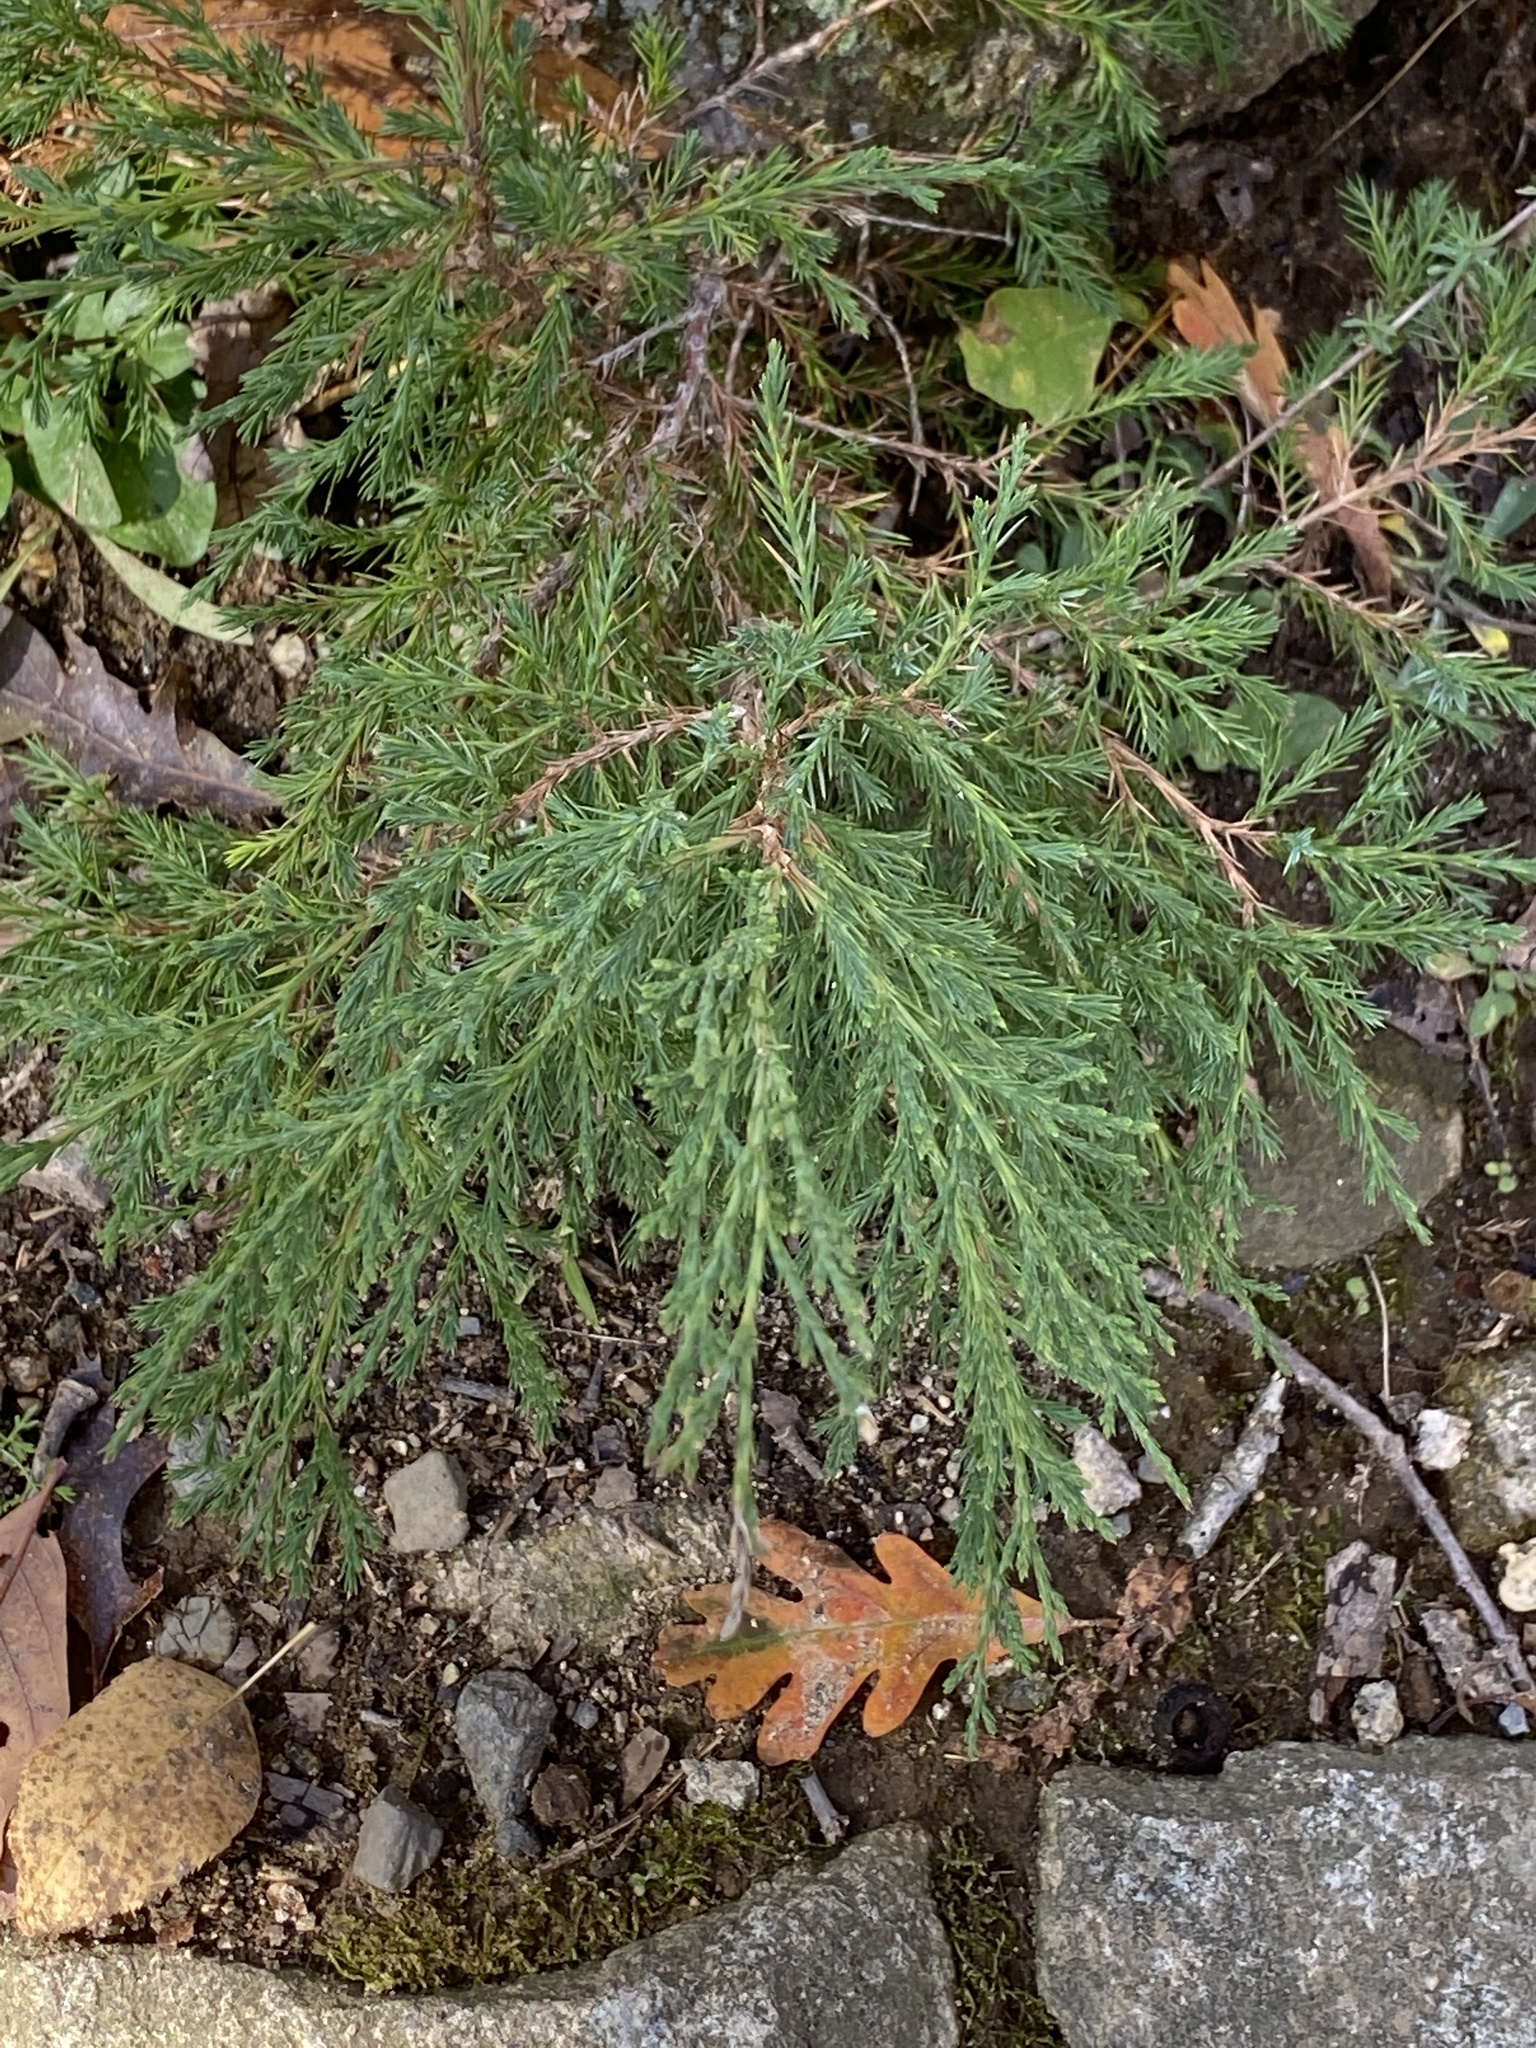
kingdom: Plantae
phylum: Tracheophyta
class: Pinopsida
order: Pinales
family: Cupressaceae
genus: Juniperus
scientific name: Juniperus virginiana
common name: Red juniper
